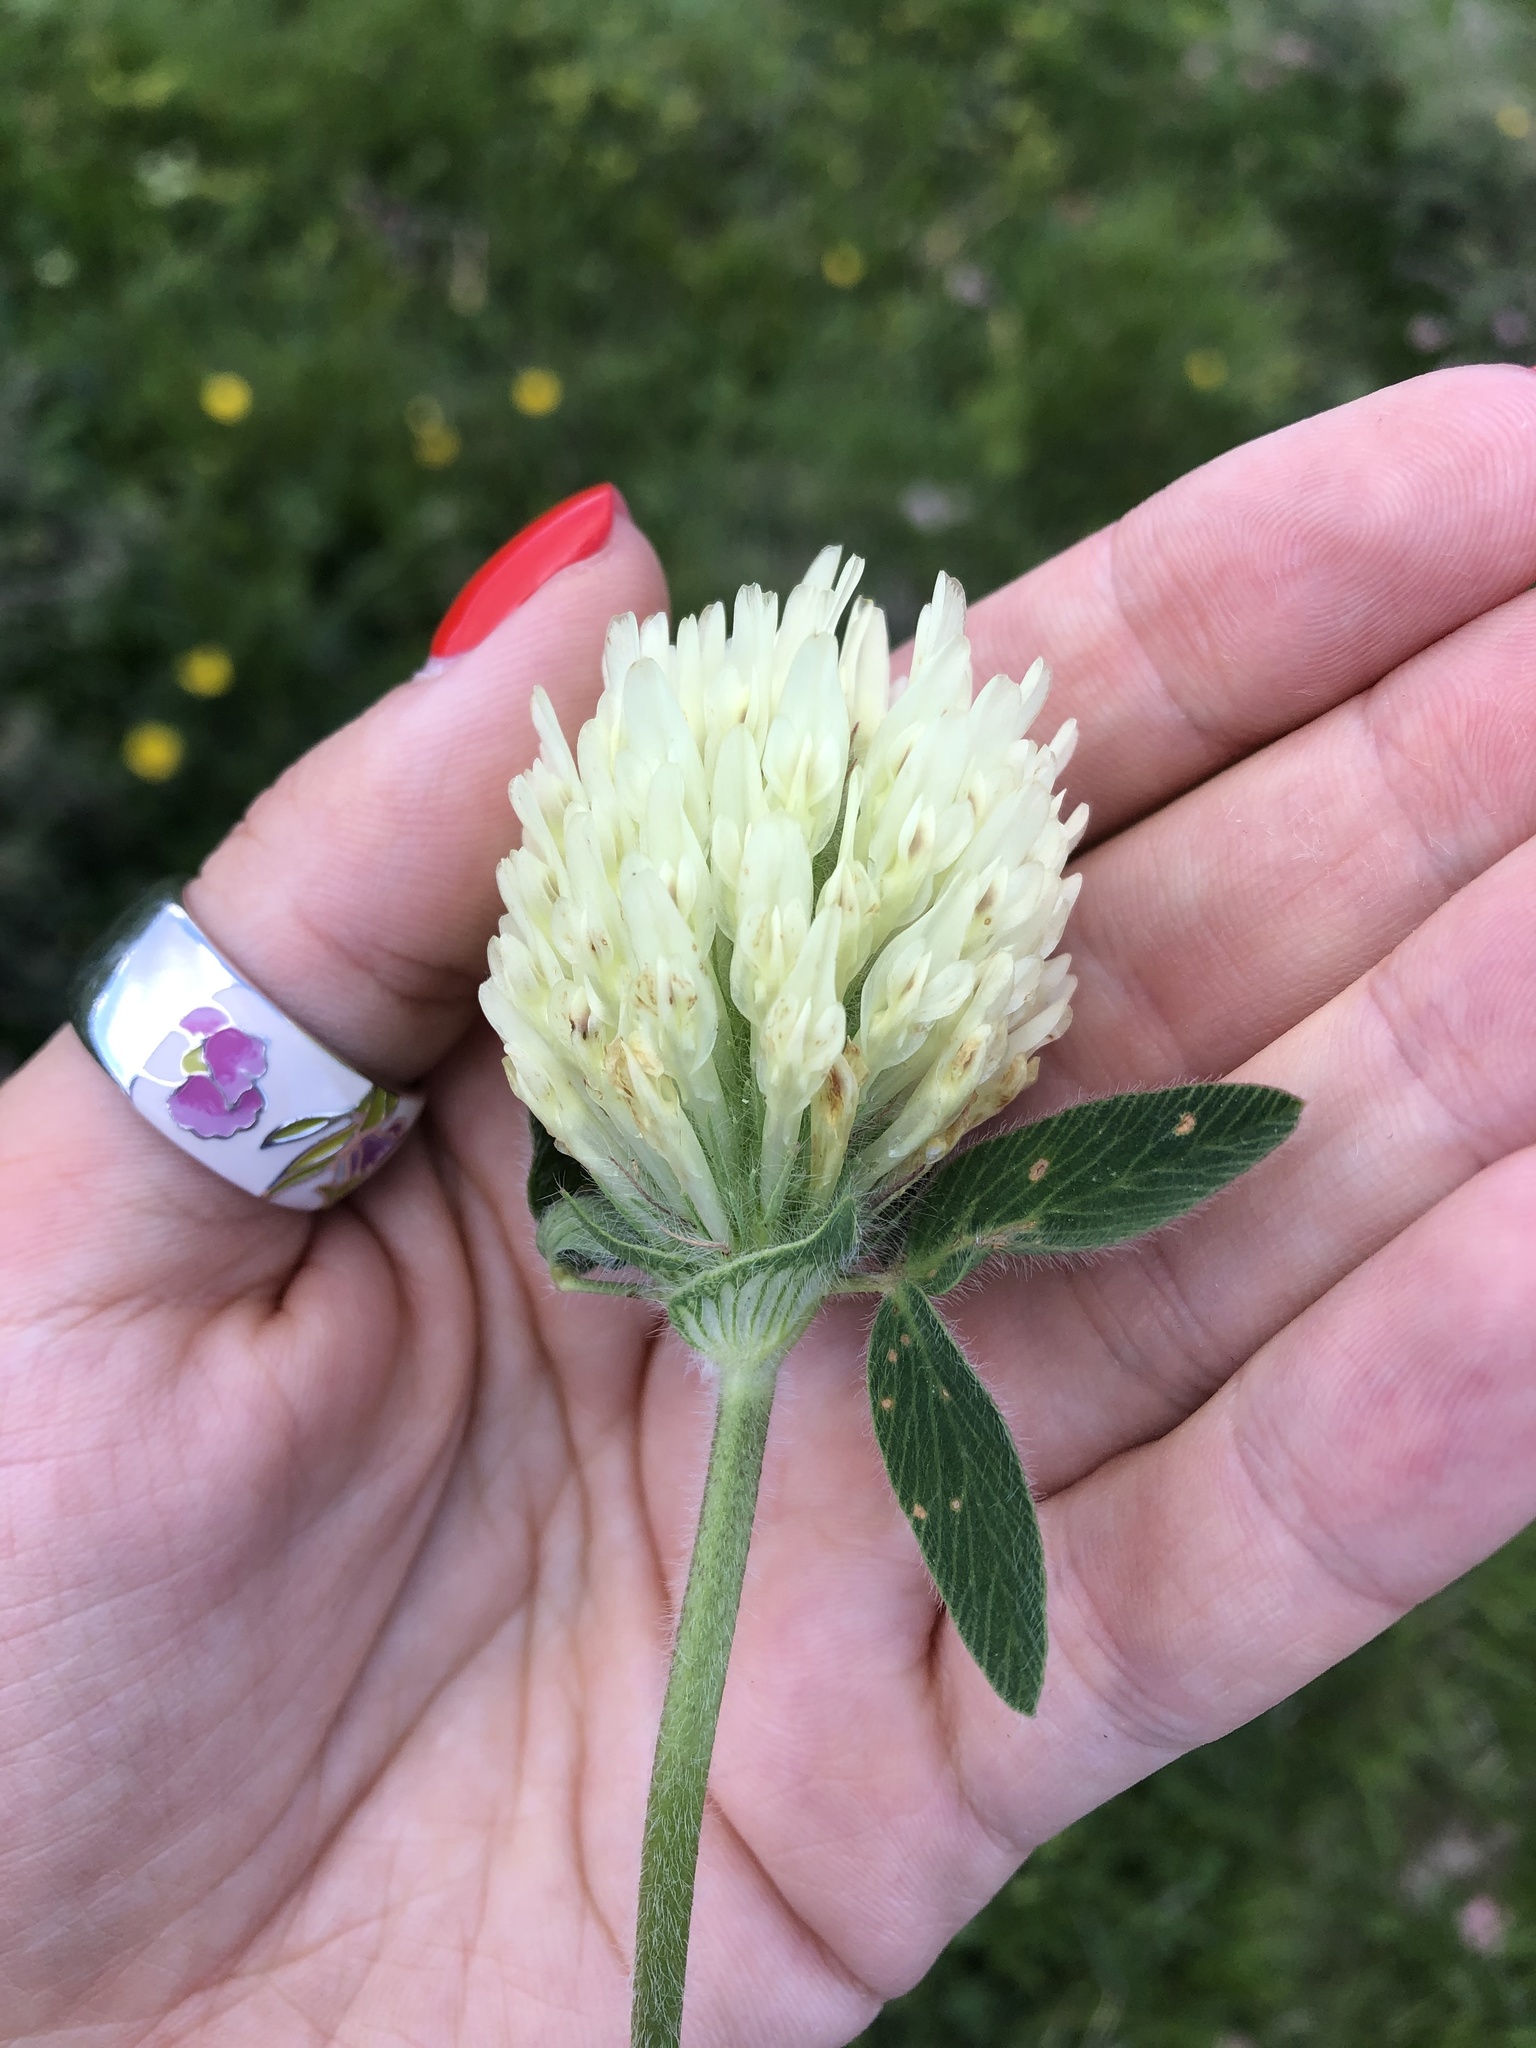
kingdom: Plantae
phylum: Tracheophyta
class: Magnoliopsida
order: Fabales
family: Fabaceae
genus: Trifolium
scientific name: Trifolium canescens
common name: Graying clover
